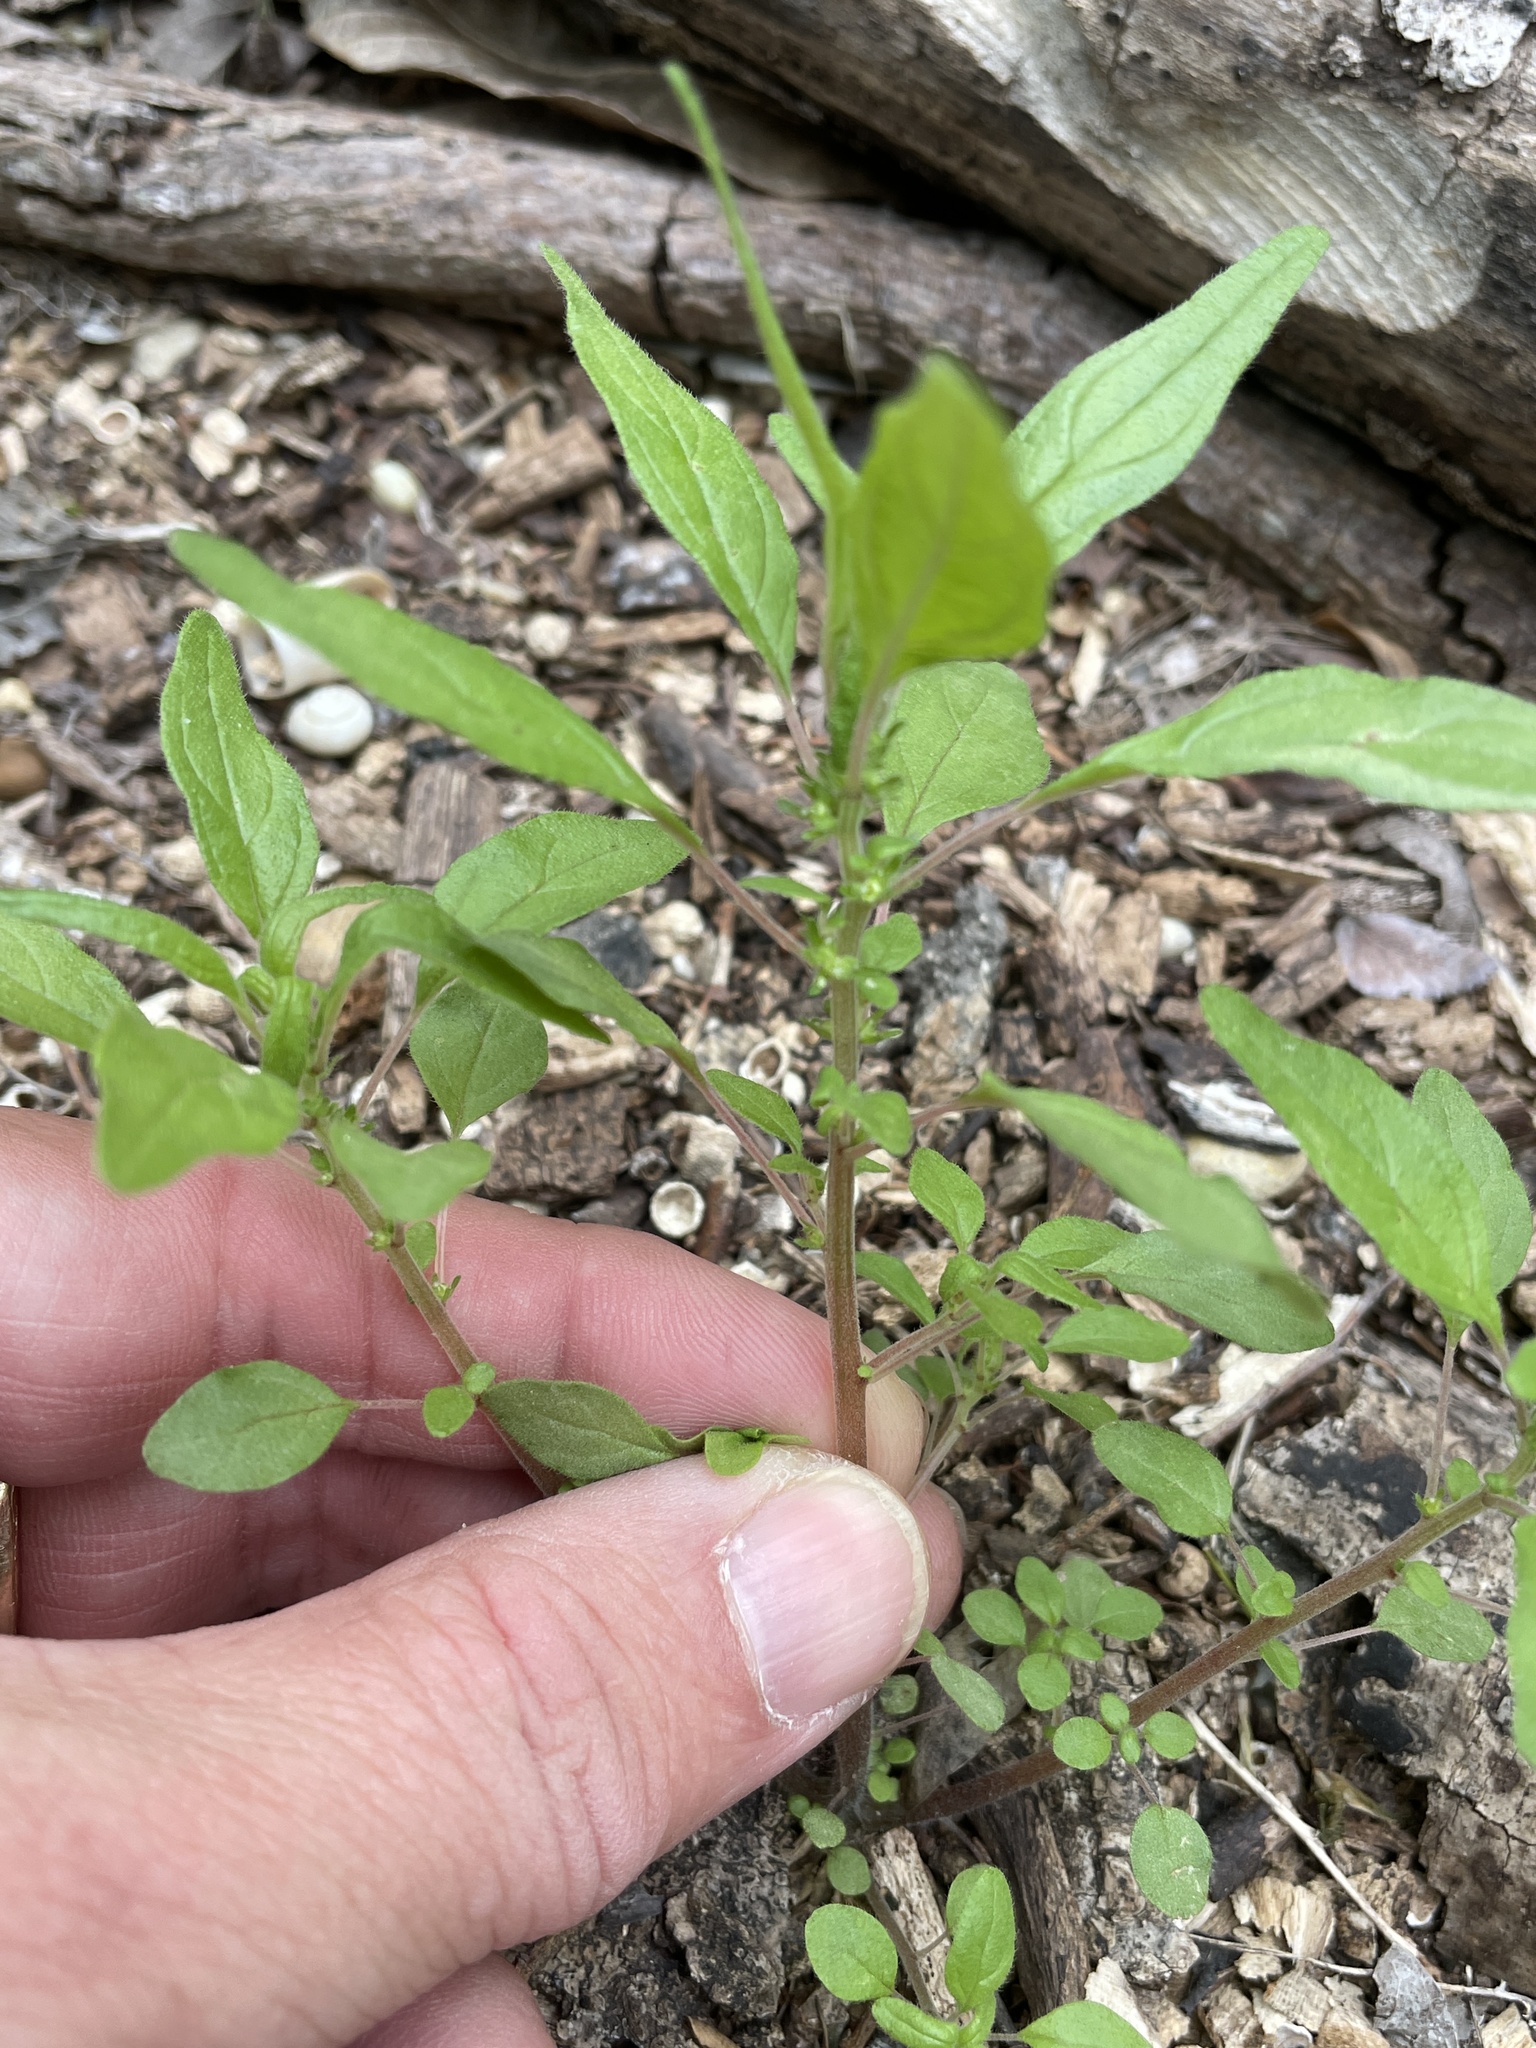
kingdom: Plantae
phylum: Tracheophyta
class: Magnoliopsida
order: Rosales
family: Urticaceae
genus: Parietaria
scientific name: Parietaria pensylvanica
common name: Pennsylvania pellitory
